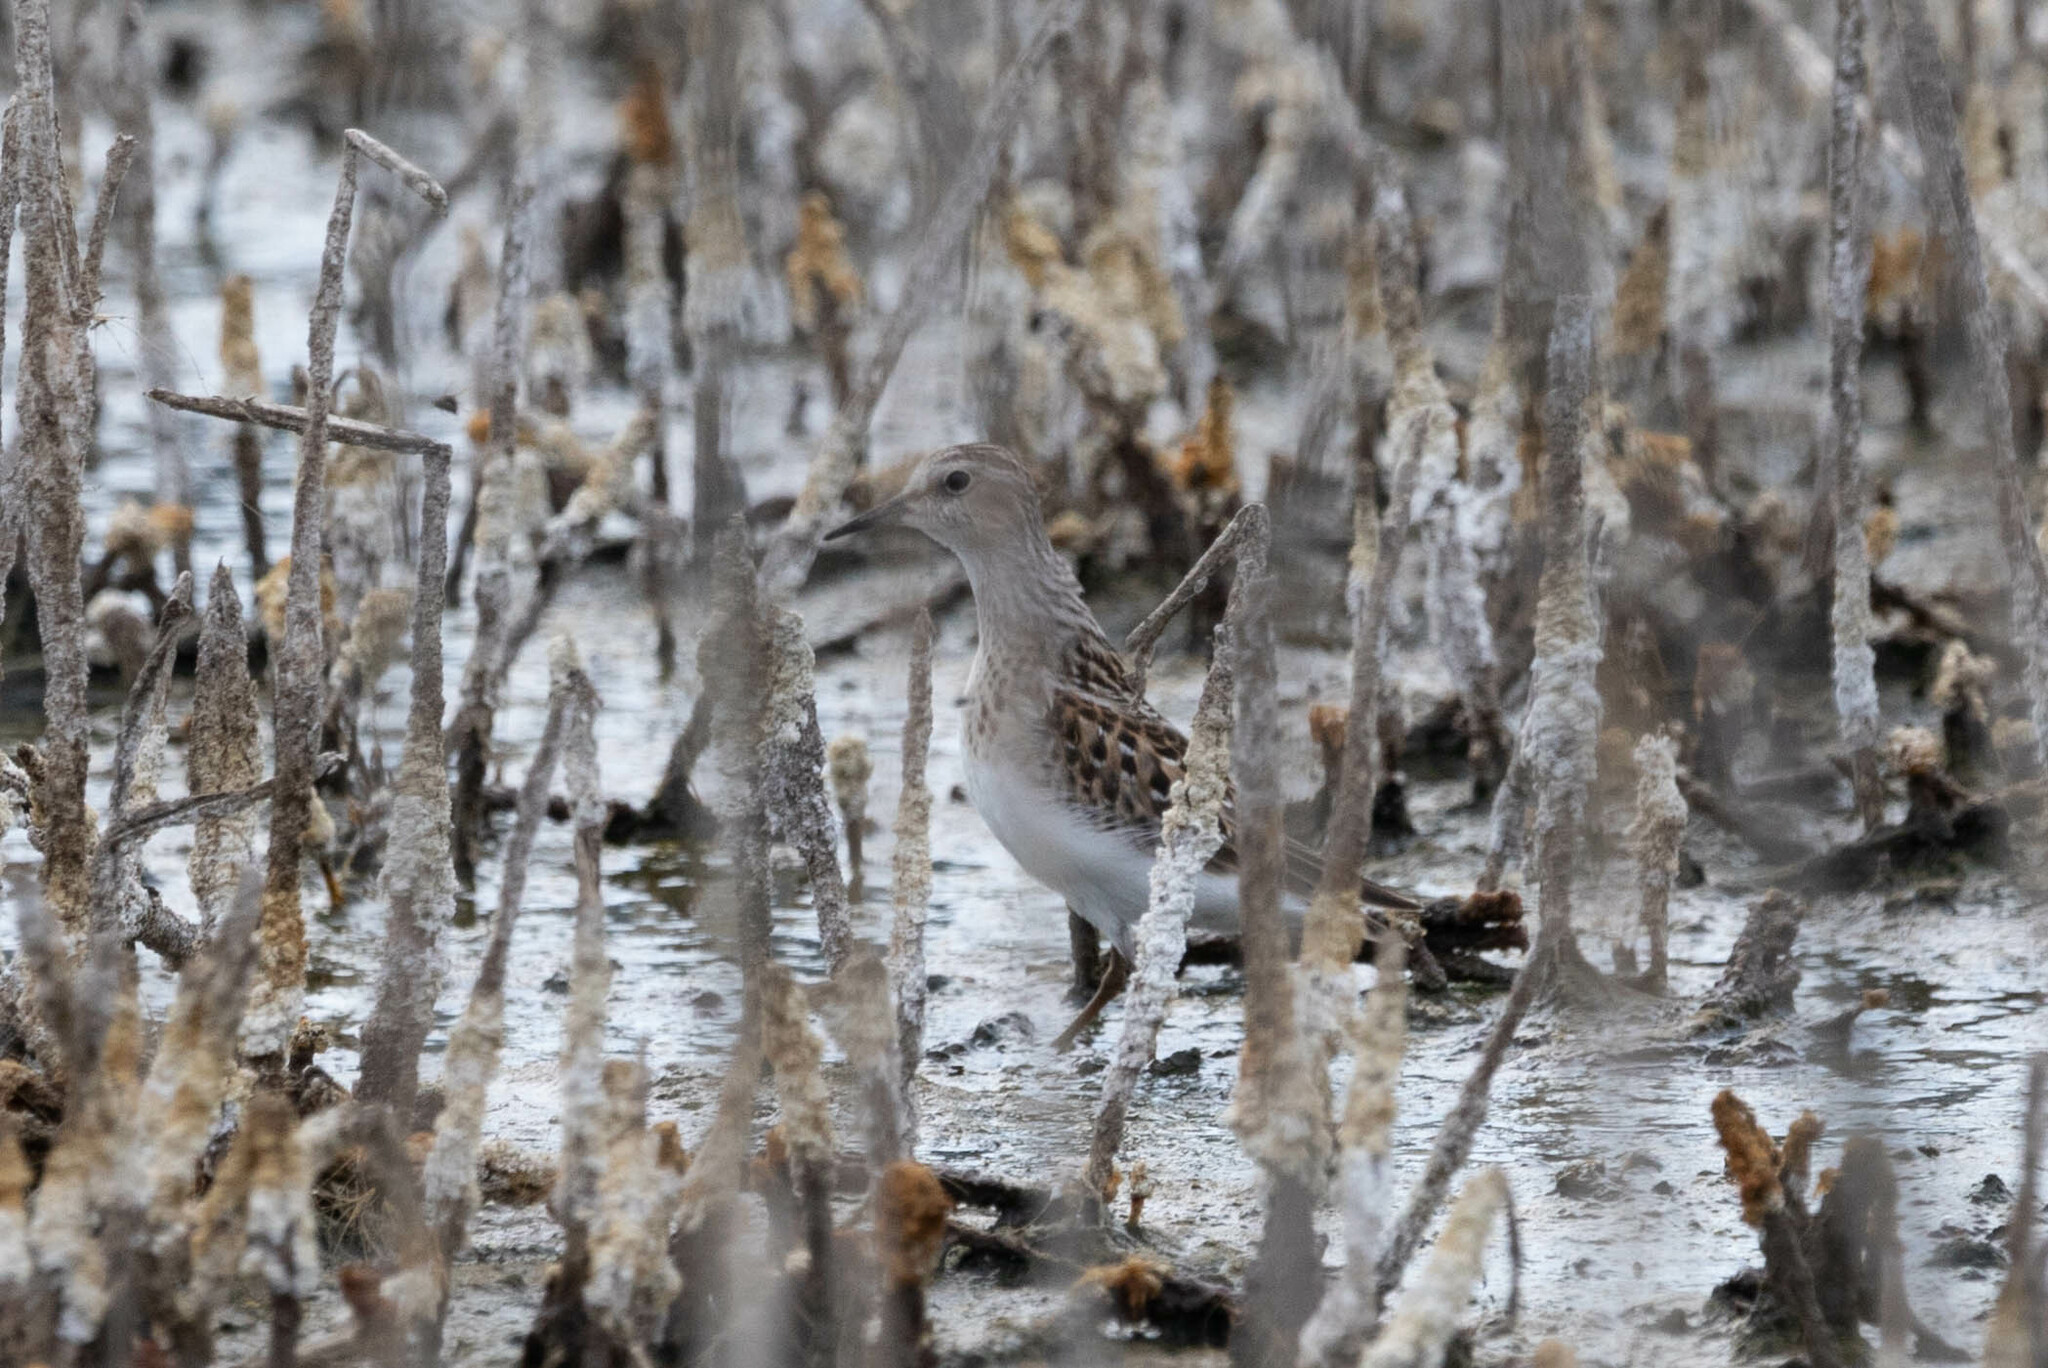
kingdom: Animalia
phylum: Chordata
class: Aves
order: Charadriiformes
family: Scolopacidae
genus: Calidris
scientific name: Calidris minutilla
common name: Least sandpiper
